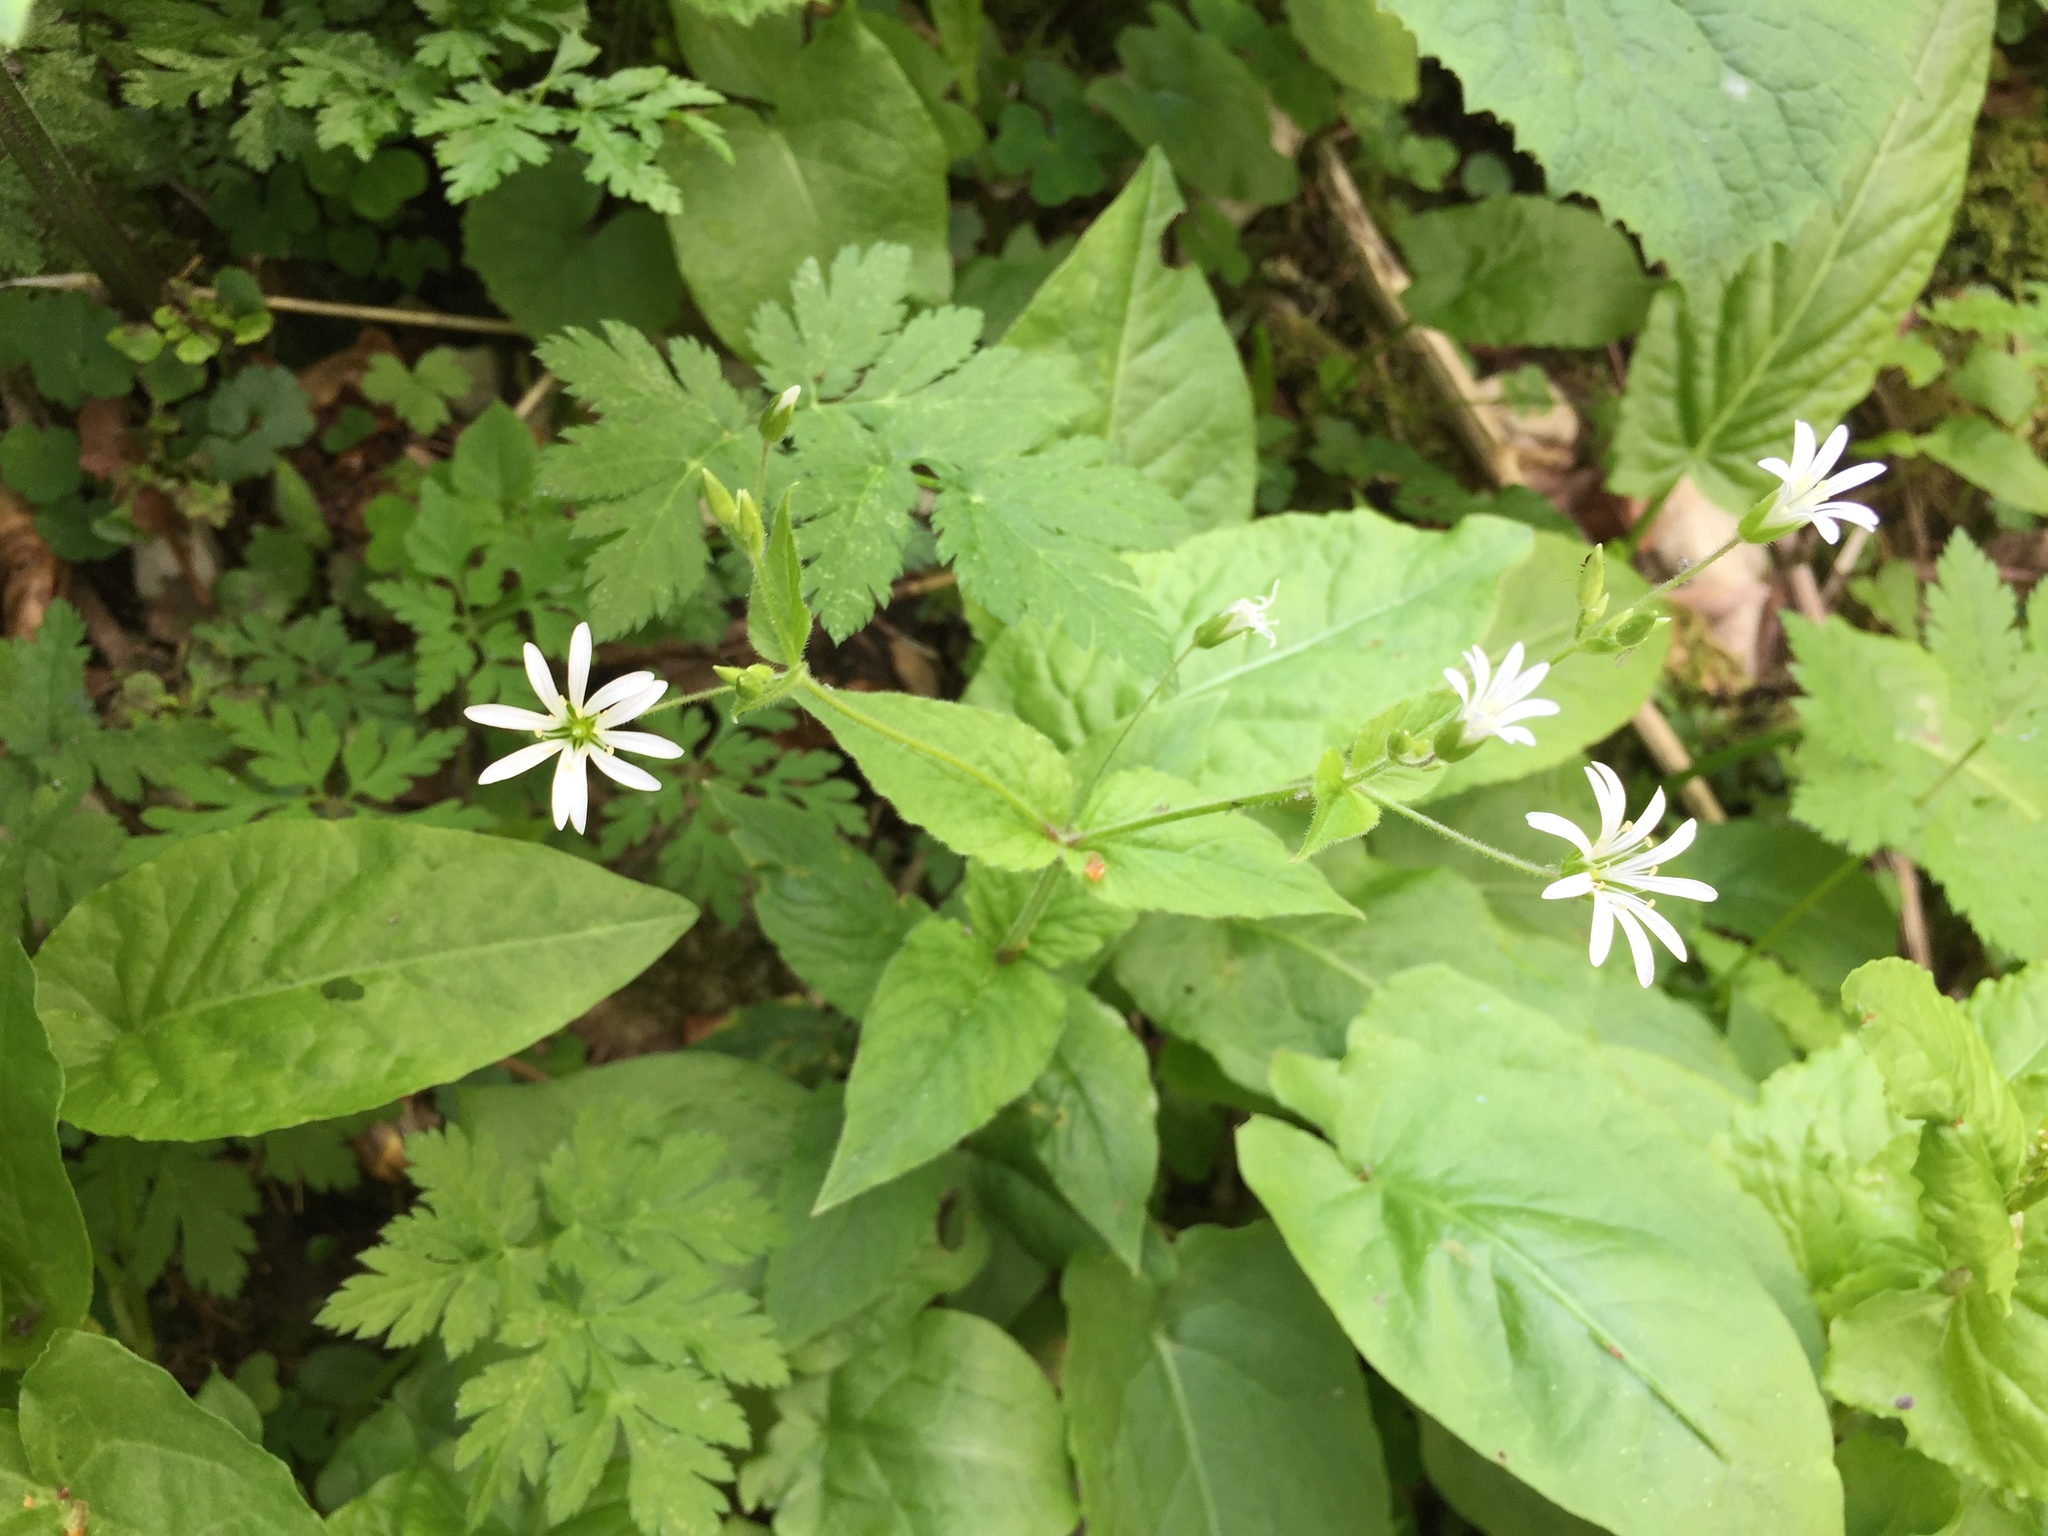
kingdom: Plantae
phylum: Tracheophyta
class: Magnoliopsida
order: Caryophyllales
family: Caryophyllaceae
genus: Stellaria
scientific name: Stellaria nemorum
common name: Wood stitchwort
